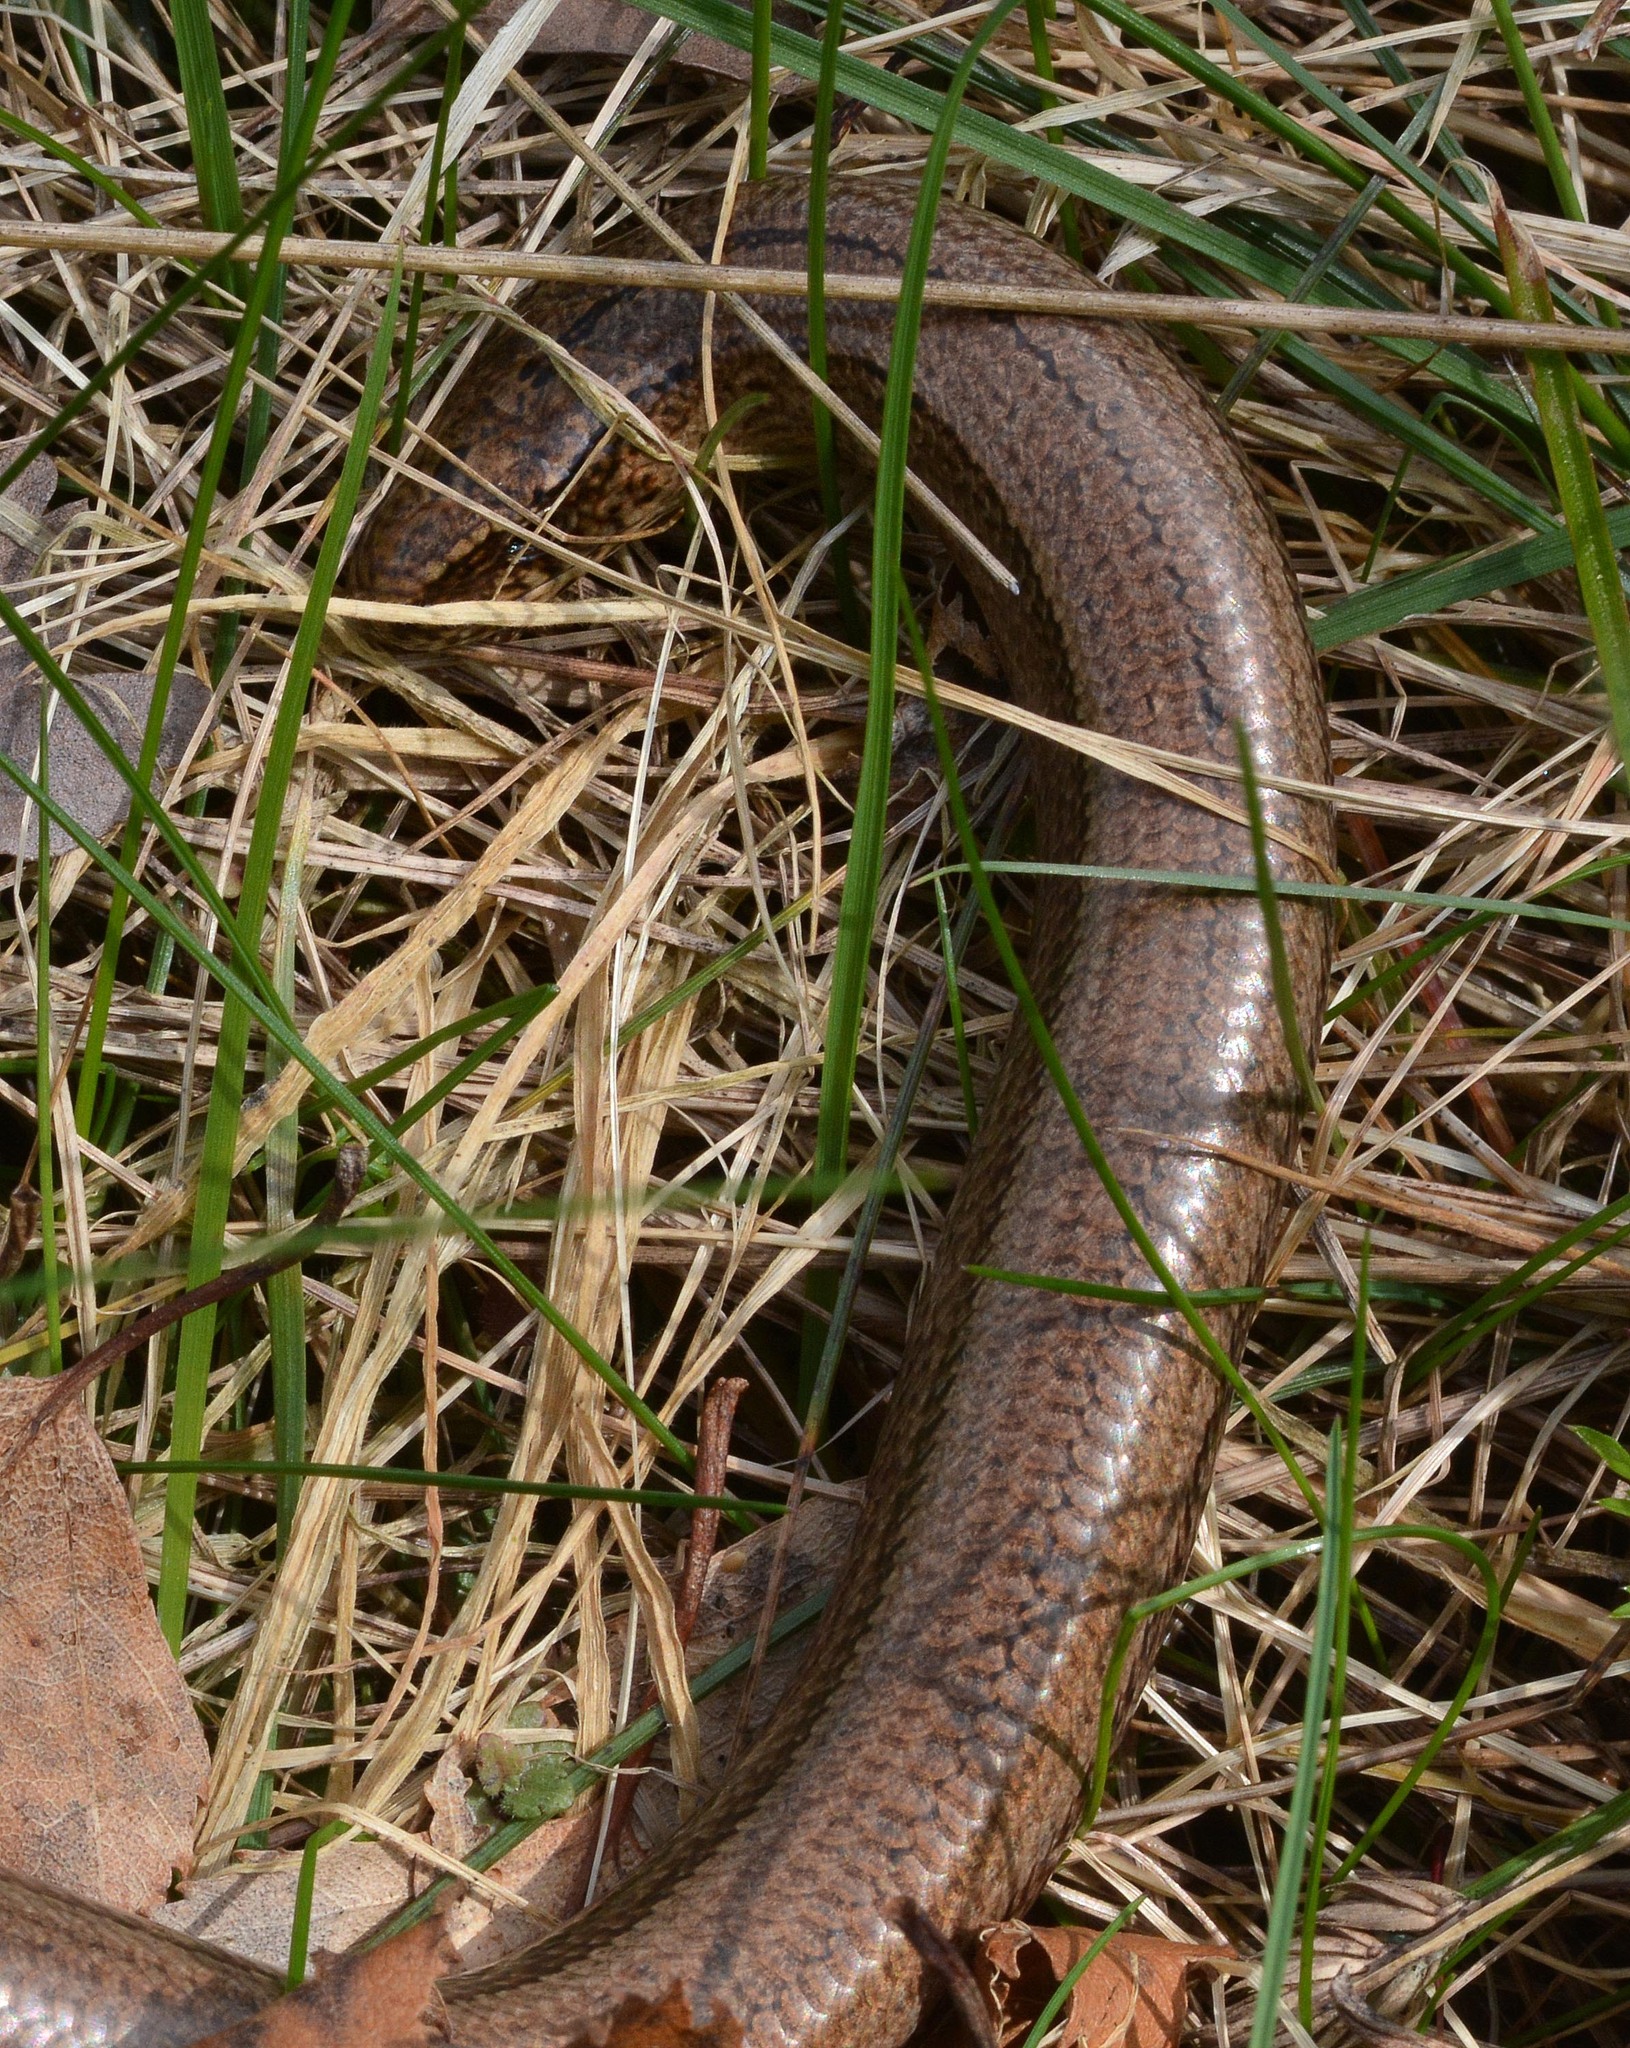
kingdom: Animalia
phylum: Chordata
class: Squamata
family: Anguidae
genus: Anguis
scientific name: Anguis fragilis
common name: Slow worm
